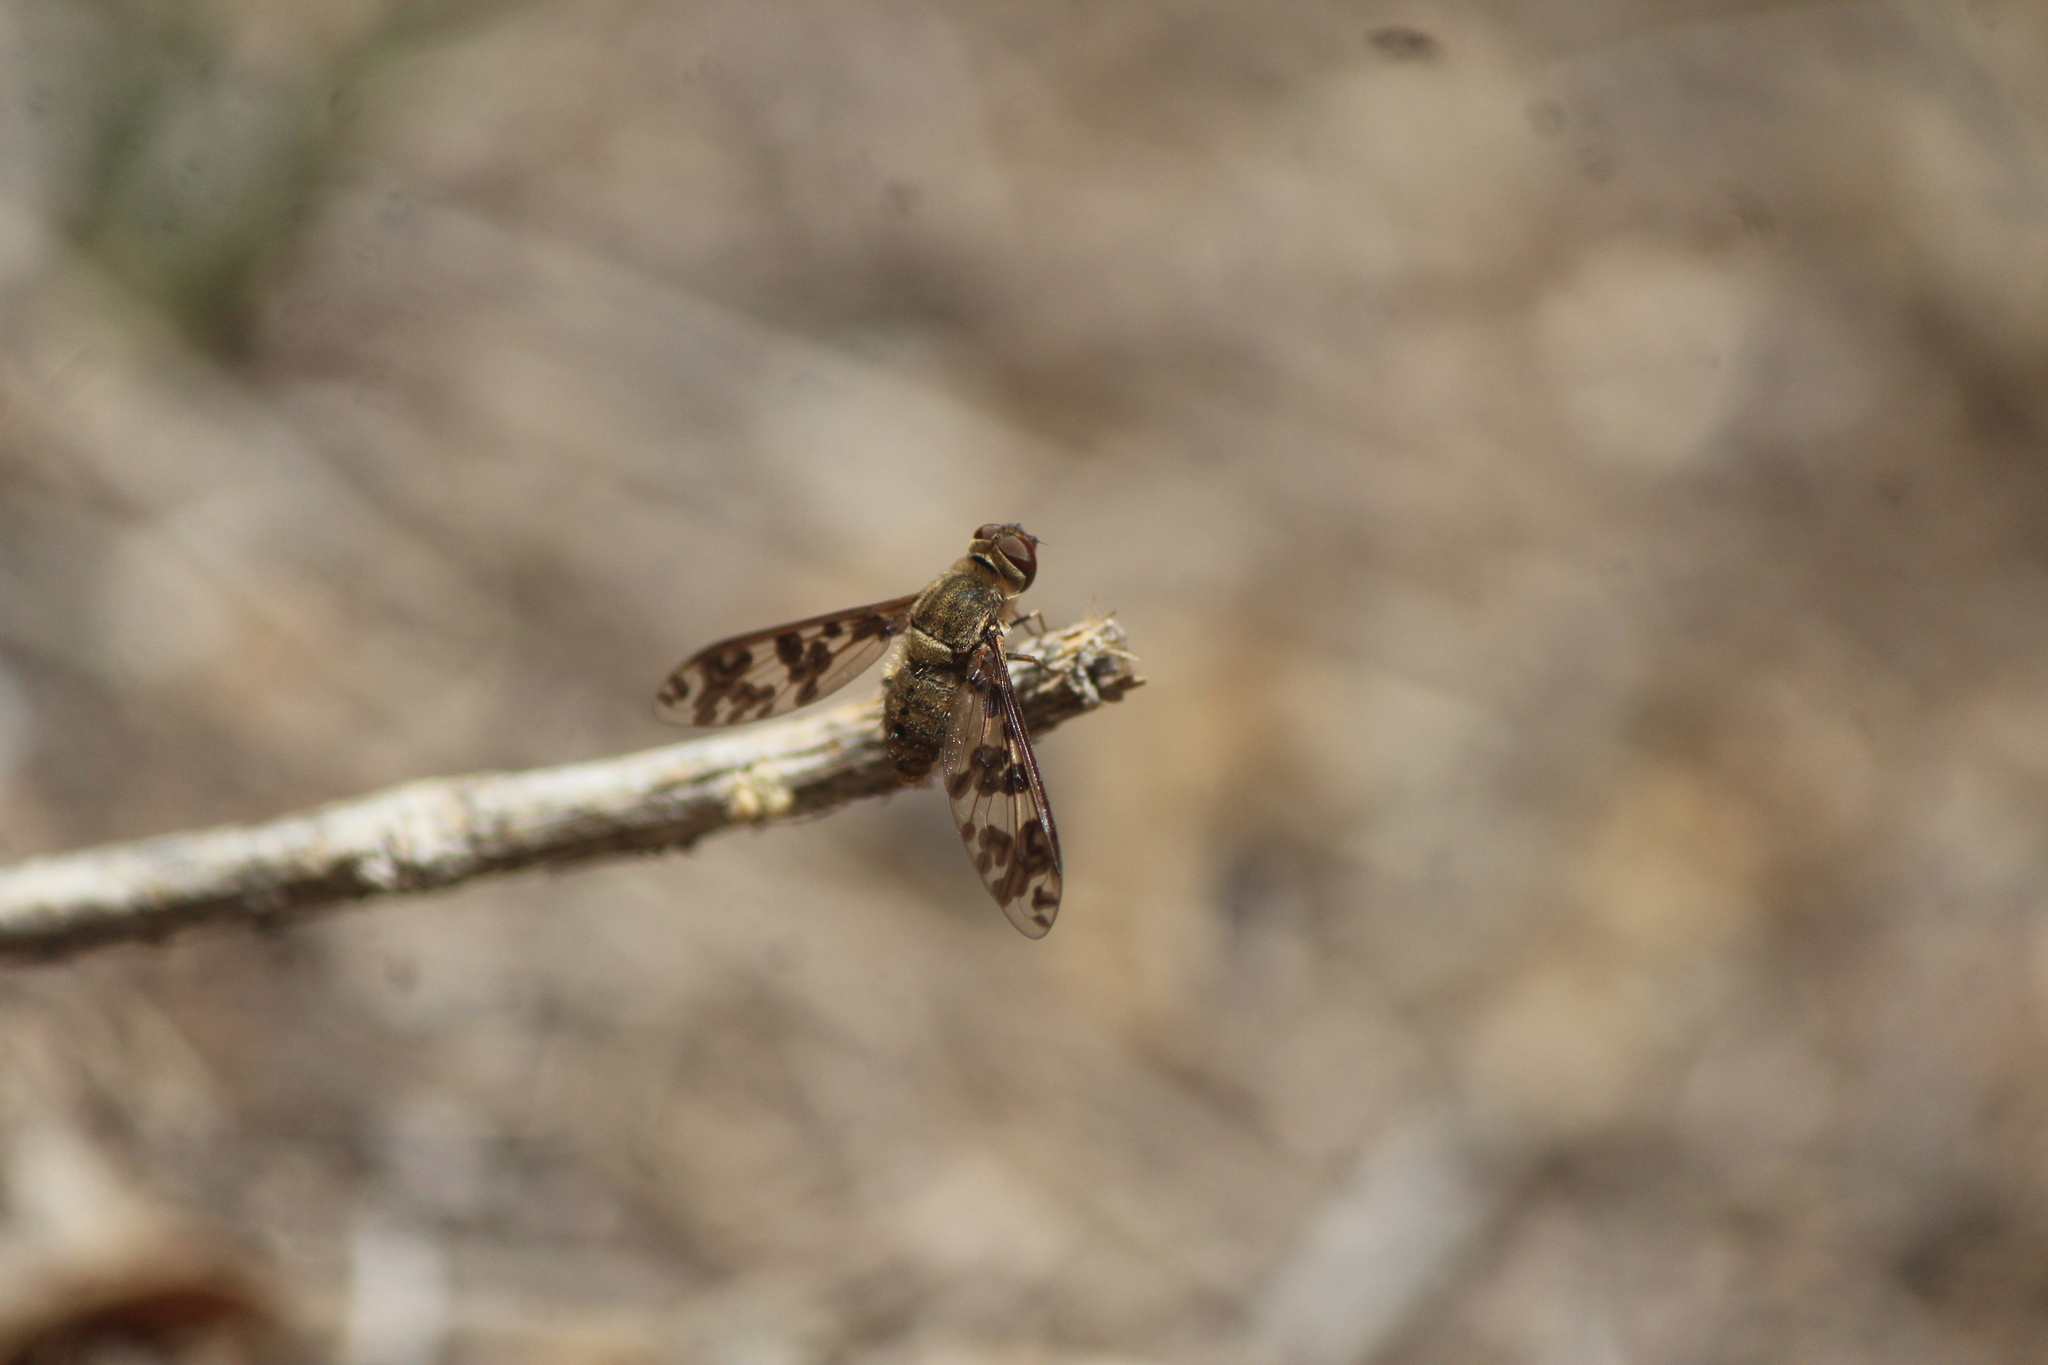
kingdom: Animalia
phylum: Arthropoda
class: Insecta
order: Diptera
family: Bombyliidae
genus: Dipalta
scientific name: Dipalta serpentina
